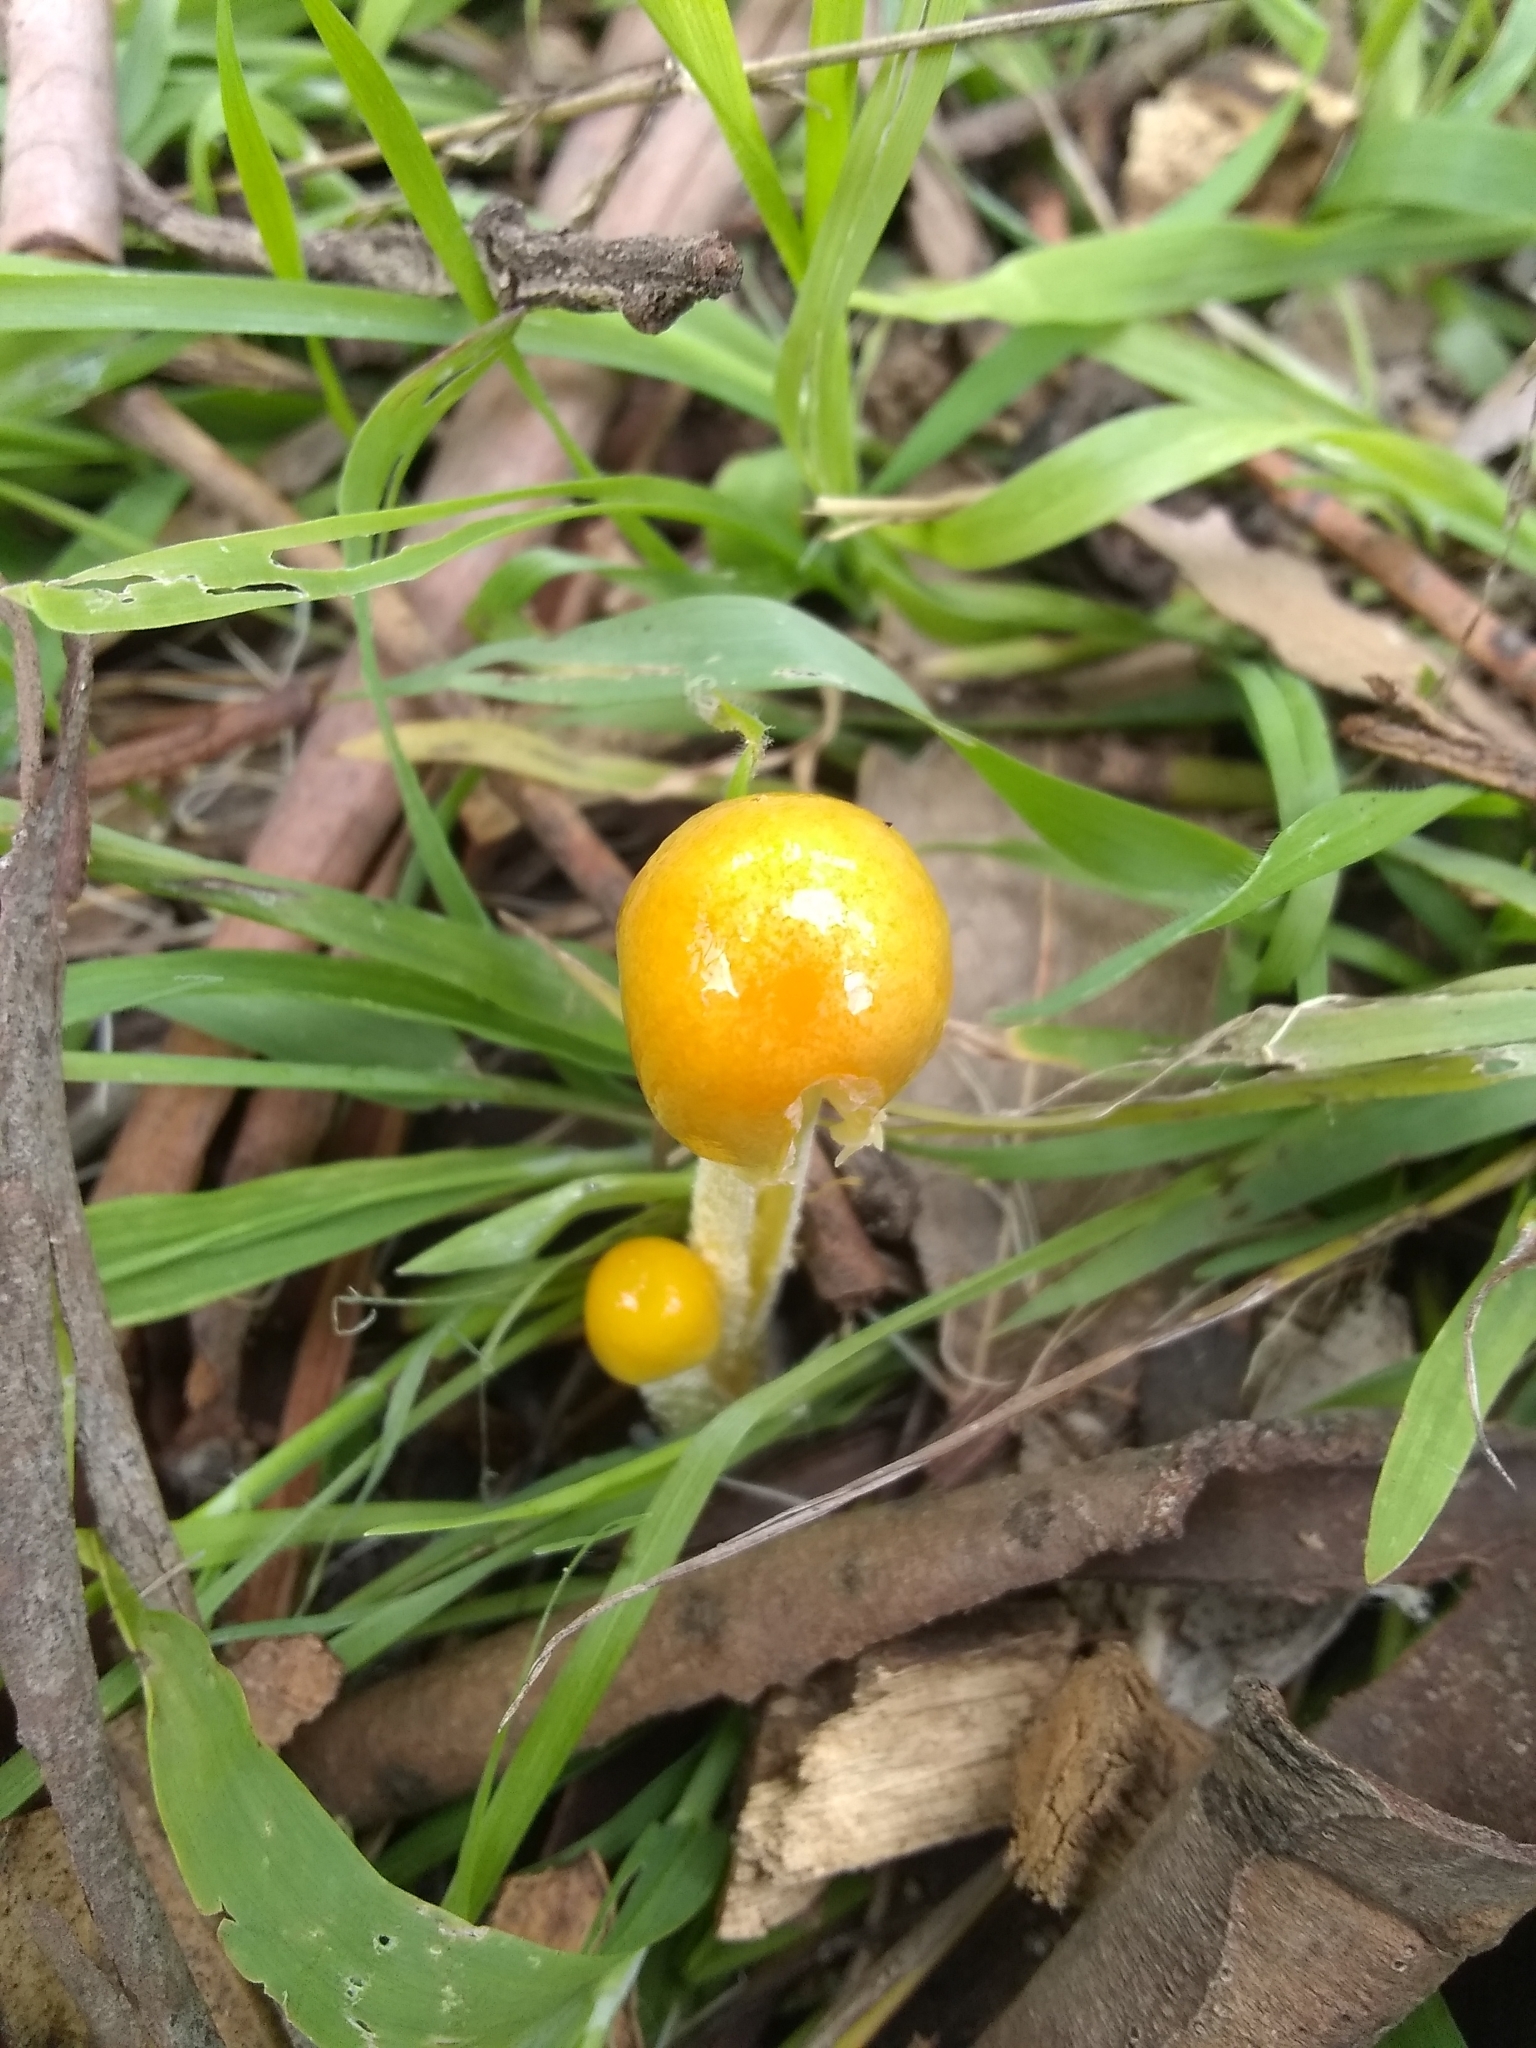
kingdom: Fungi
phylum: Basidiomycota
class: Agaricomycetes
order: Agaricales
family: Bolbitiaceae
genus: Bolbitius
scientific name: Bolbitius titubans
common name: Yellow fieldcap
